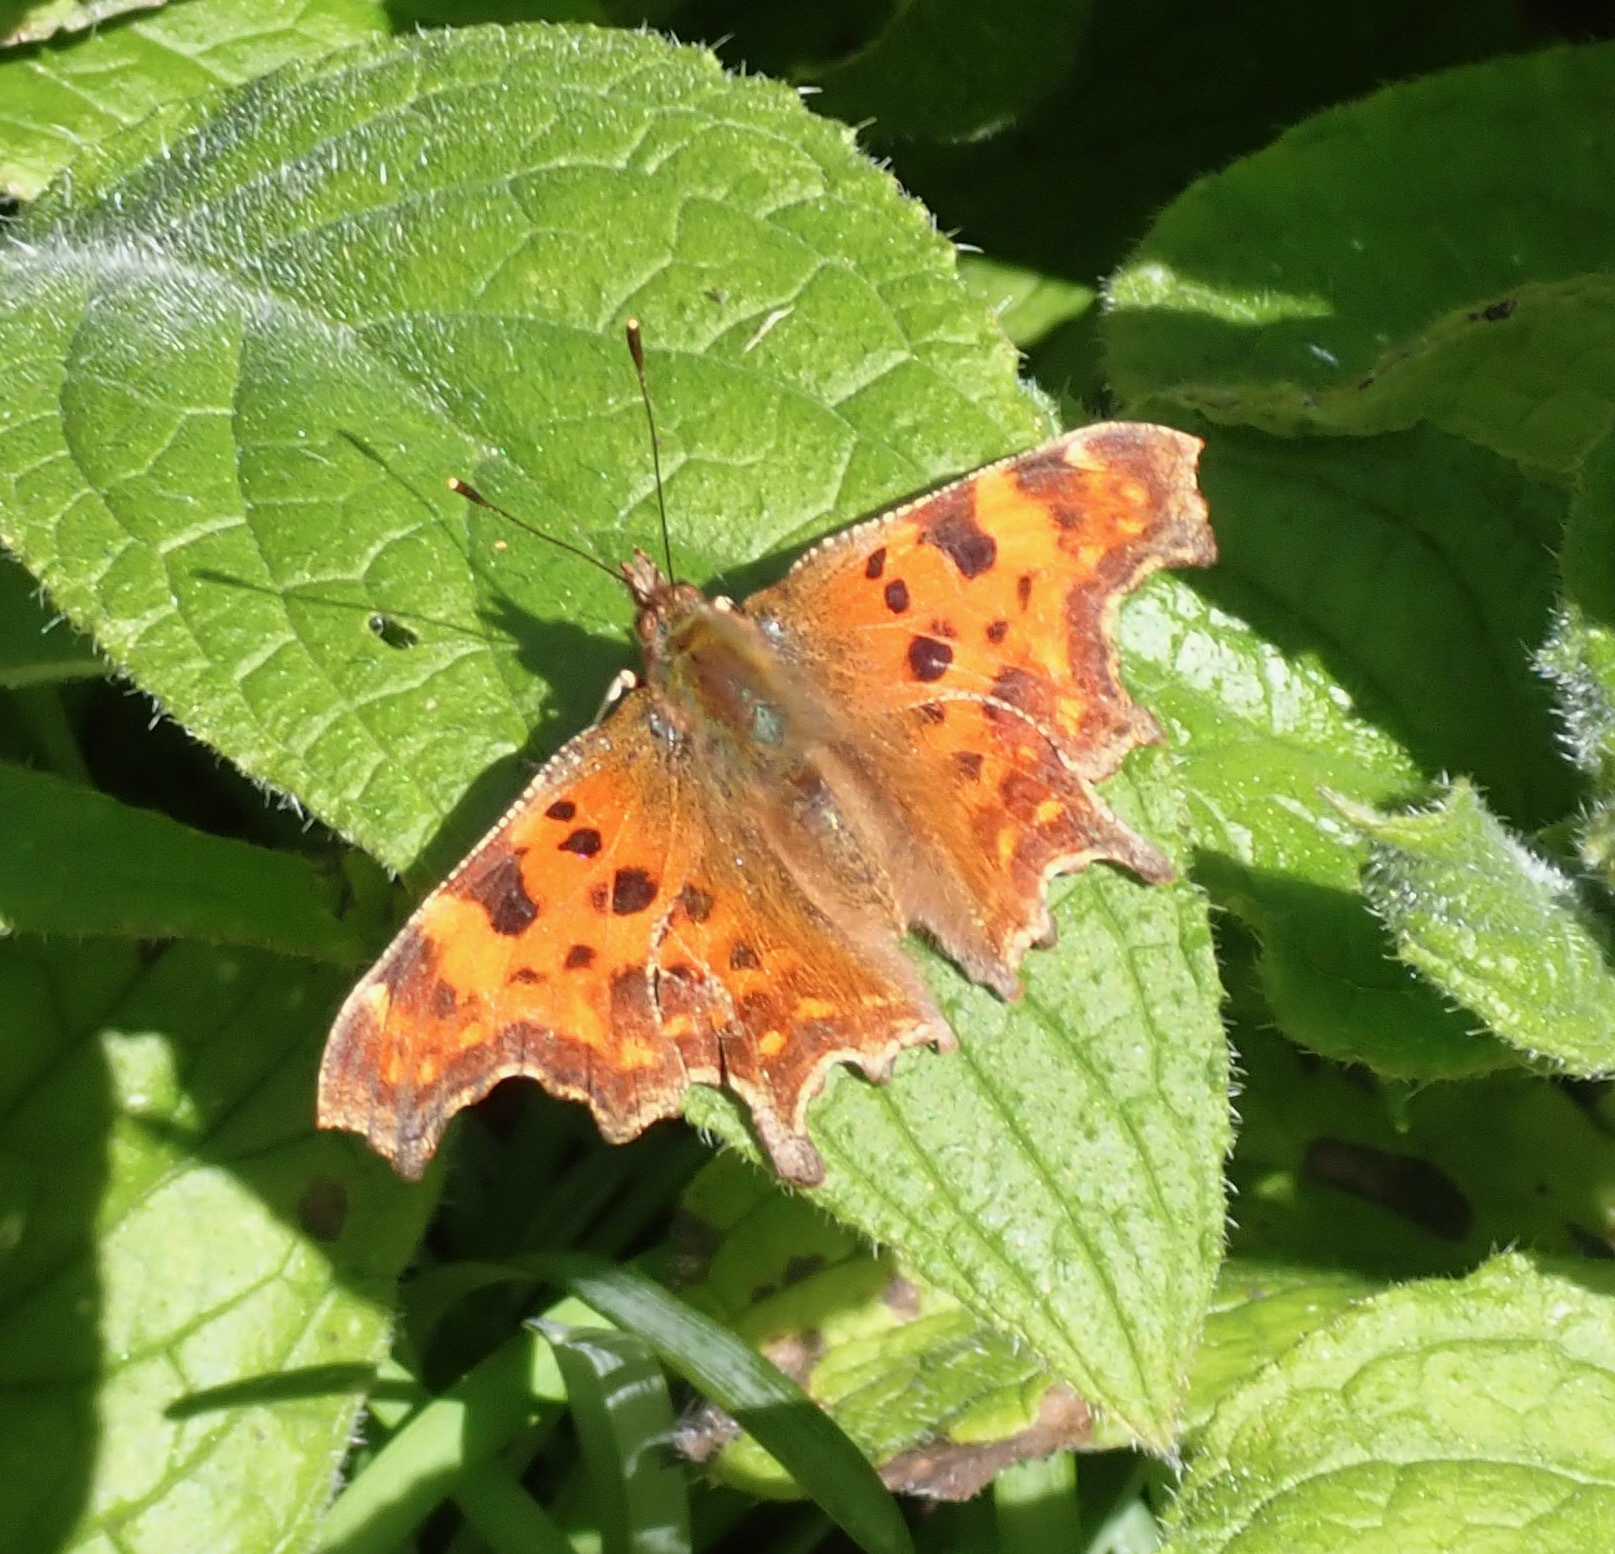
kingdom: Animalia
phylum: Arthropoda
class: Insecta
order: Lepidoptera
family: Nymphalidae
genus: Polygonia
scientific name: Polygonia c-album
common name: Comma
